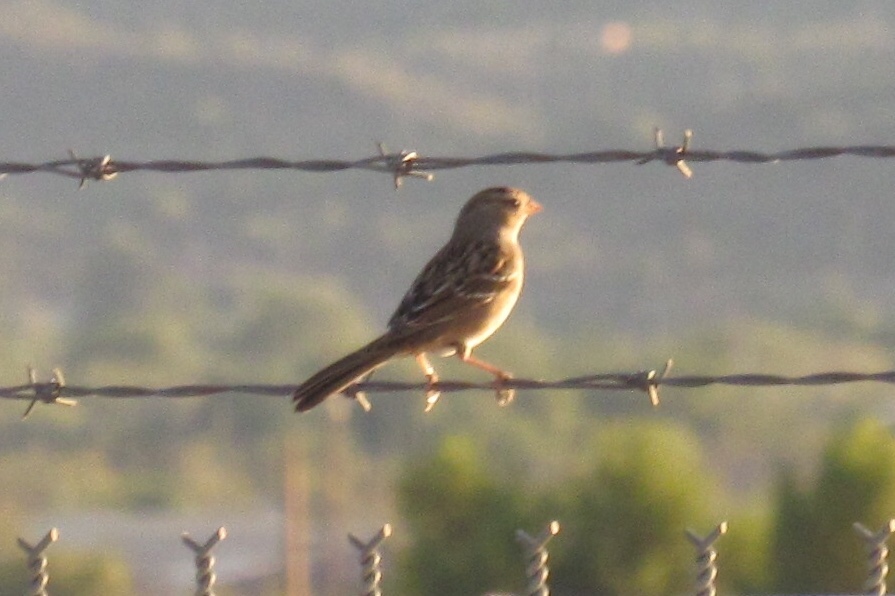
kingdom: Animalia
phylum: Chordata
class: Aves
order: Passeriformes
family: Passerellidae
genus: Zonotrichia
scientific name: Zonotrichia leucophrys
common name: White-crowned sparrow
